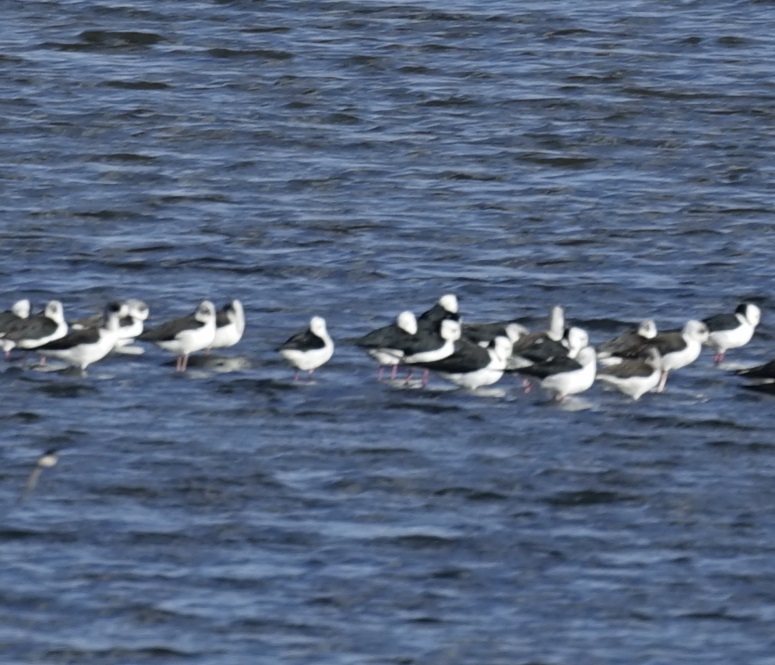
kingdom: Animalia
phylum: Chordata
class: Aves
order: Charadriiformes
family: Recurvirostridae
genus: Himantopus
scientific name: Himantopus leucocephalus
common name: White-headed stilt
